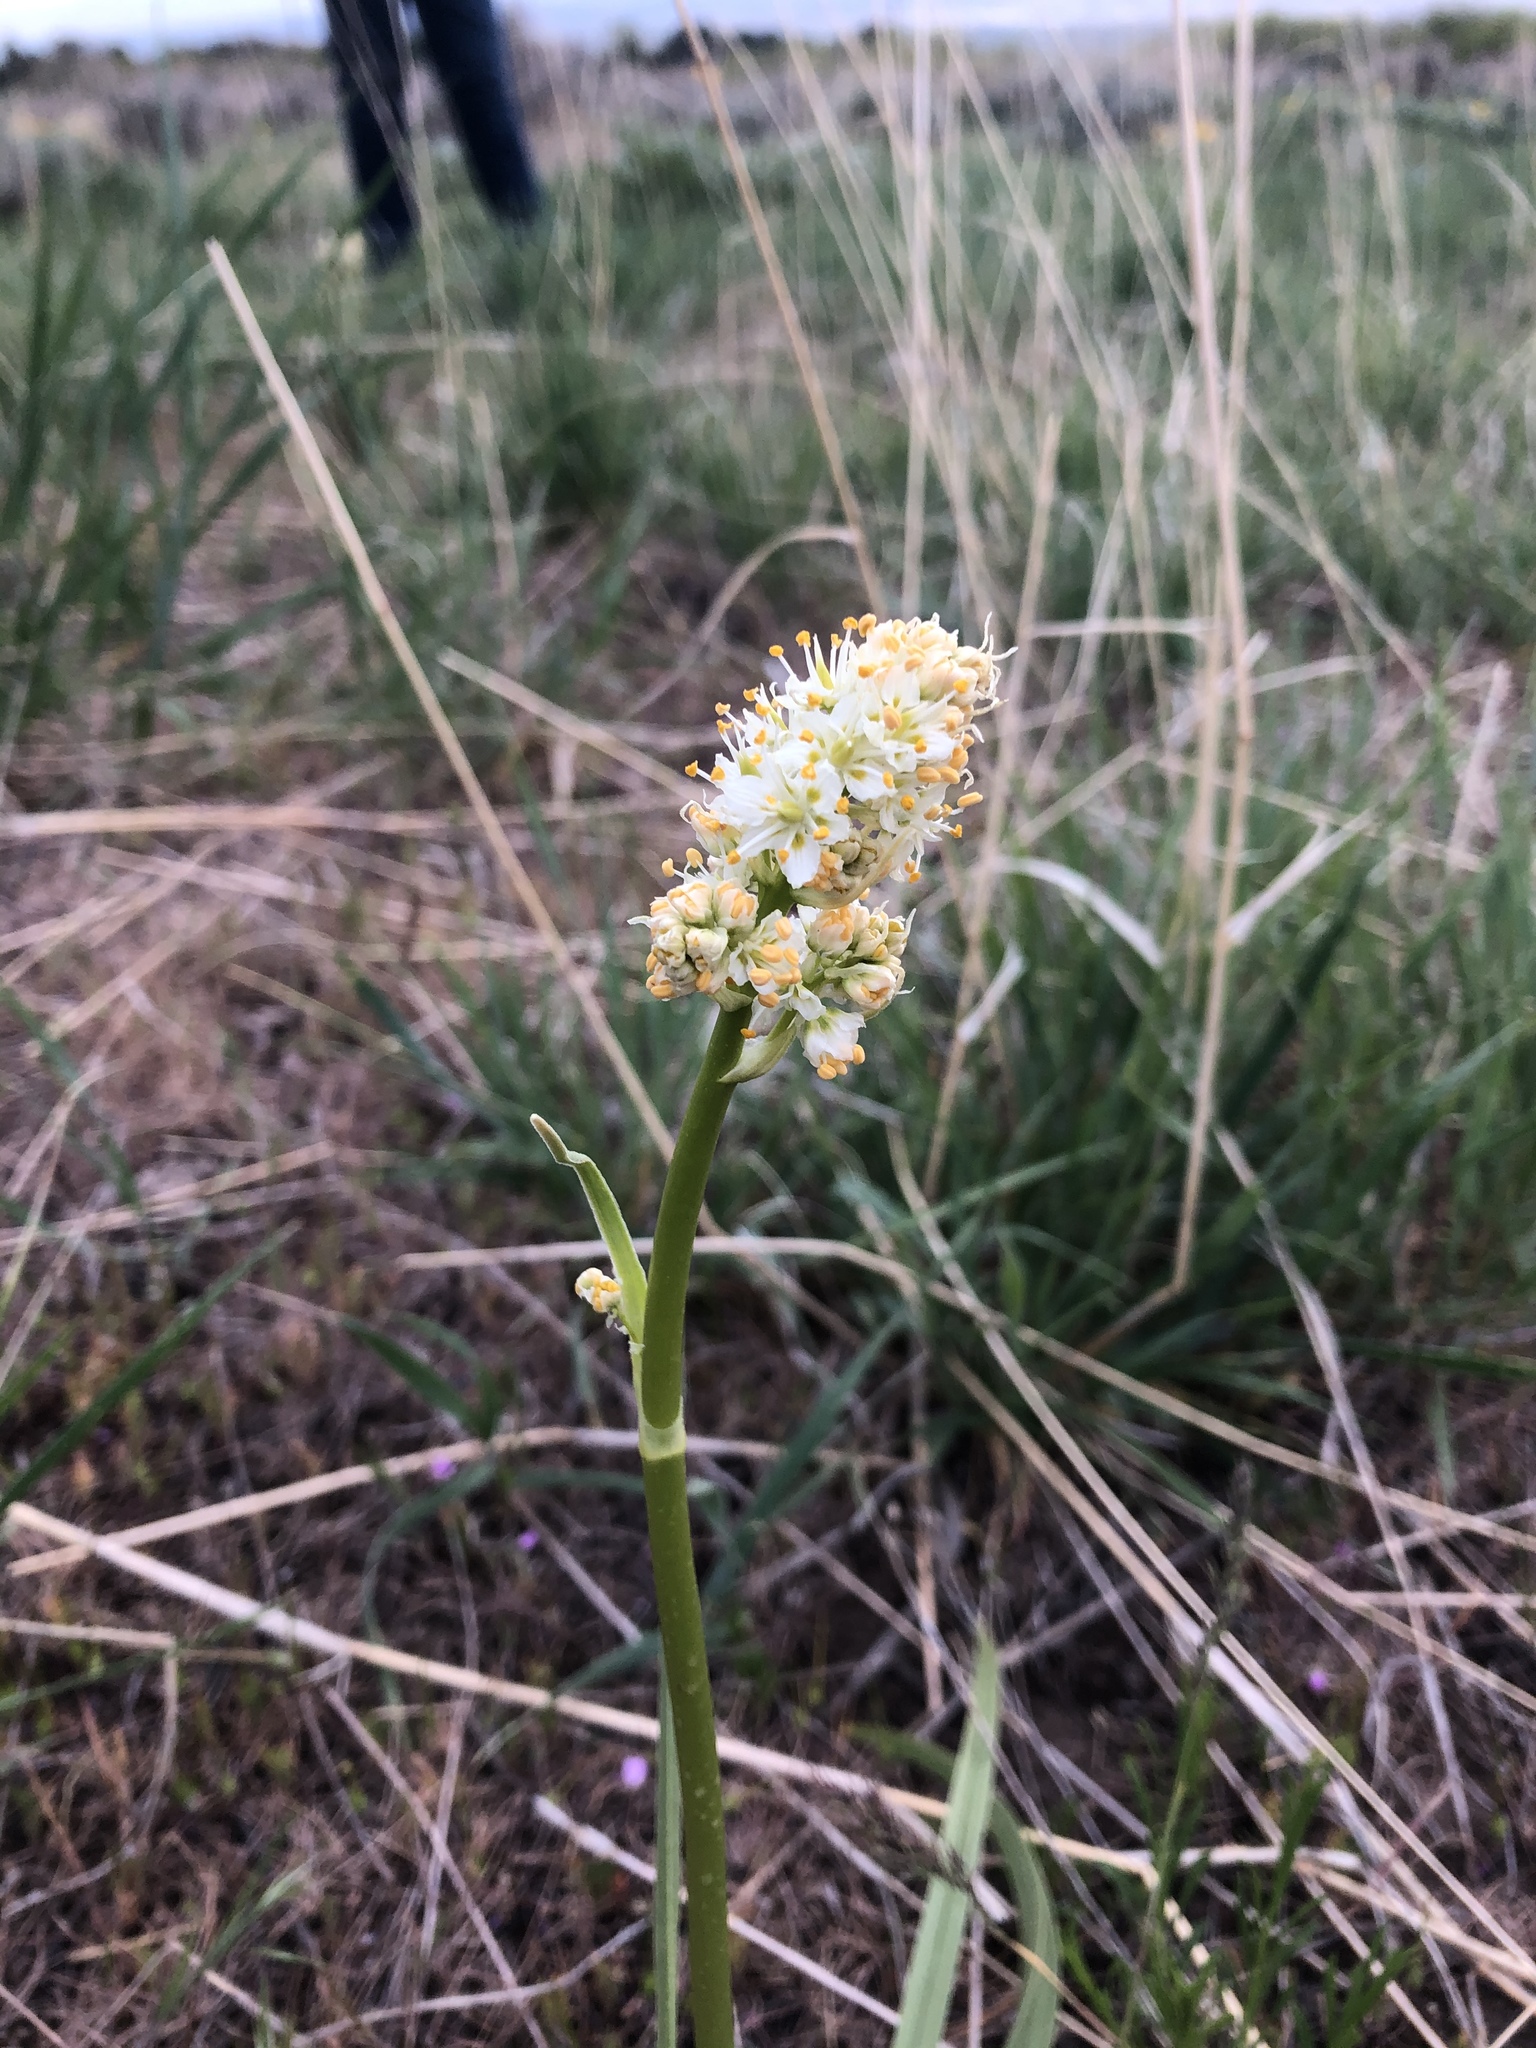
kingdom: Plantae
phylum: Tracheophyta
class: Liliopsida
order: Liliales
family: Melanthiaceae
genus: Toxicoscordion
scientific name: Toxicoscordion paniculatum
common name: Foothill death camas
